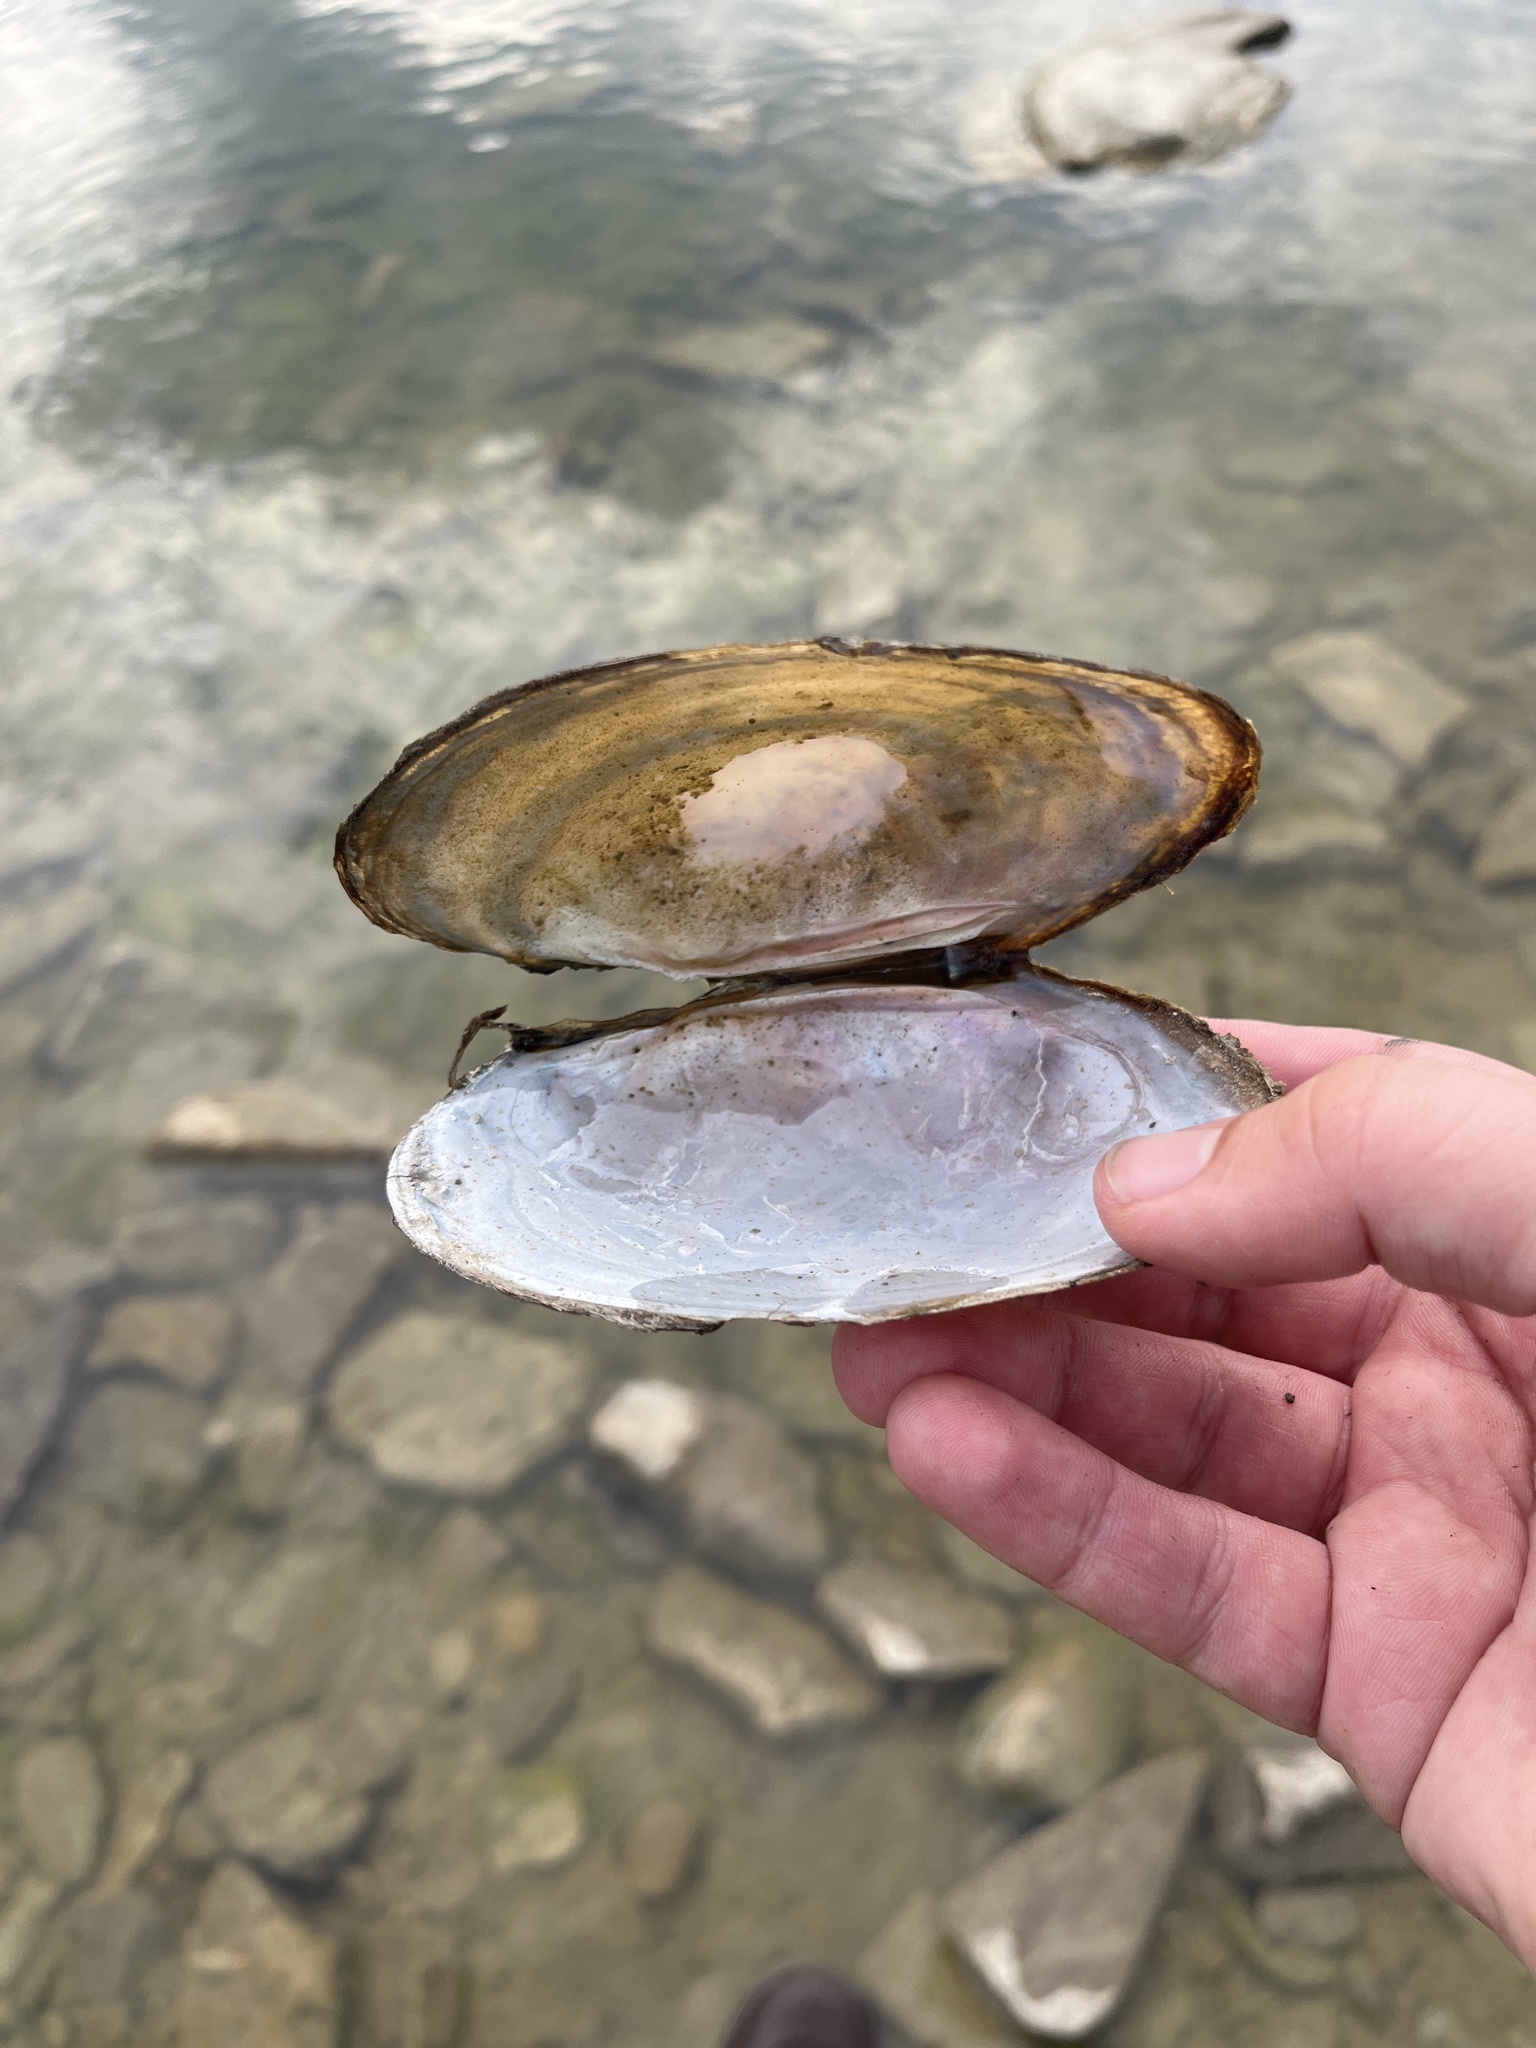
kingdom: Animalia
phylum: Mollusca
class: Bivalvia
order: Unionida
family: Unionidae
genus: Potamilus
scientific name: Potamilus fragilis
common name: Fragile papershell
